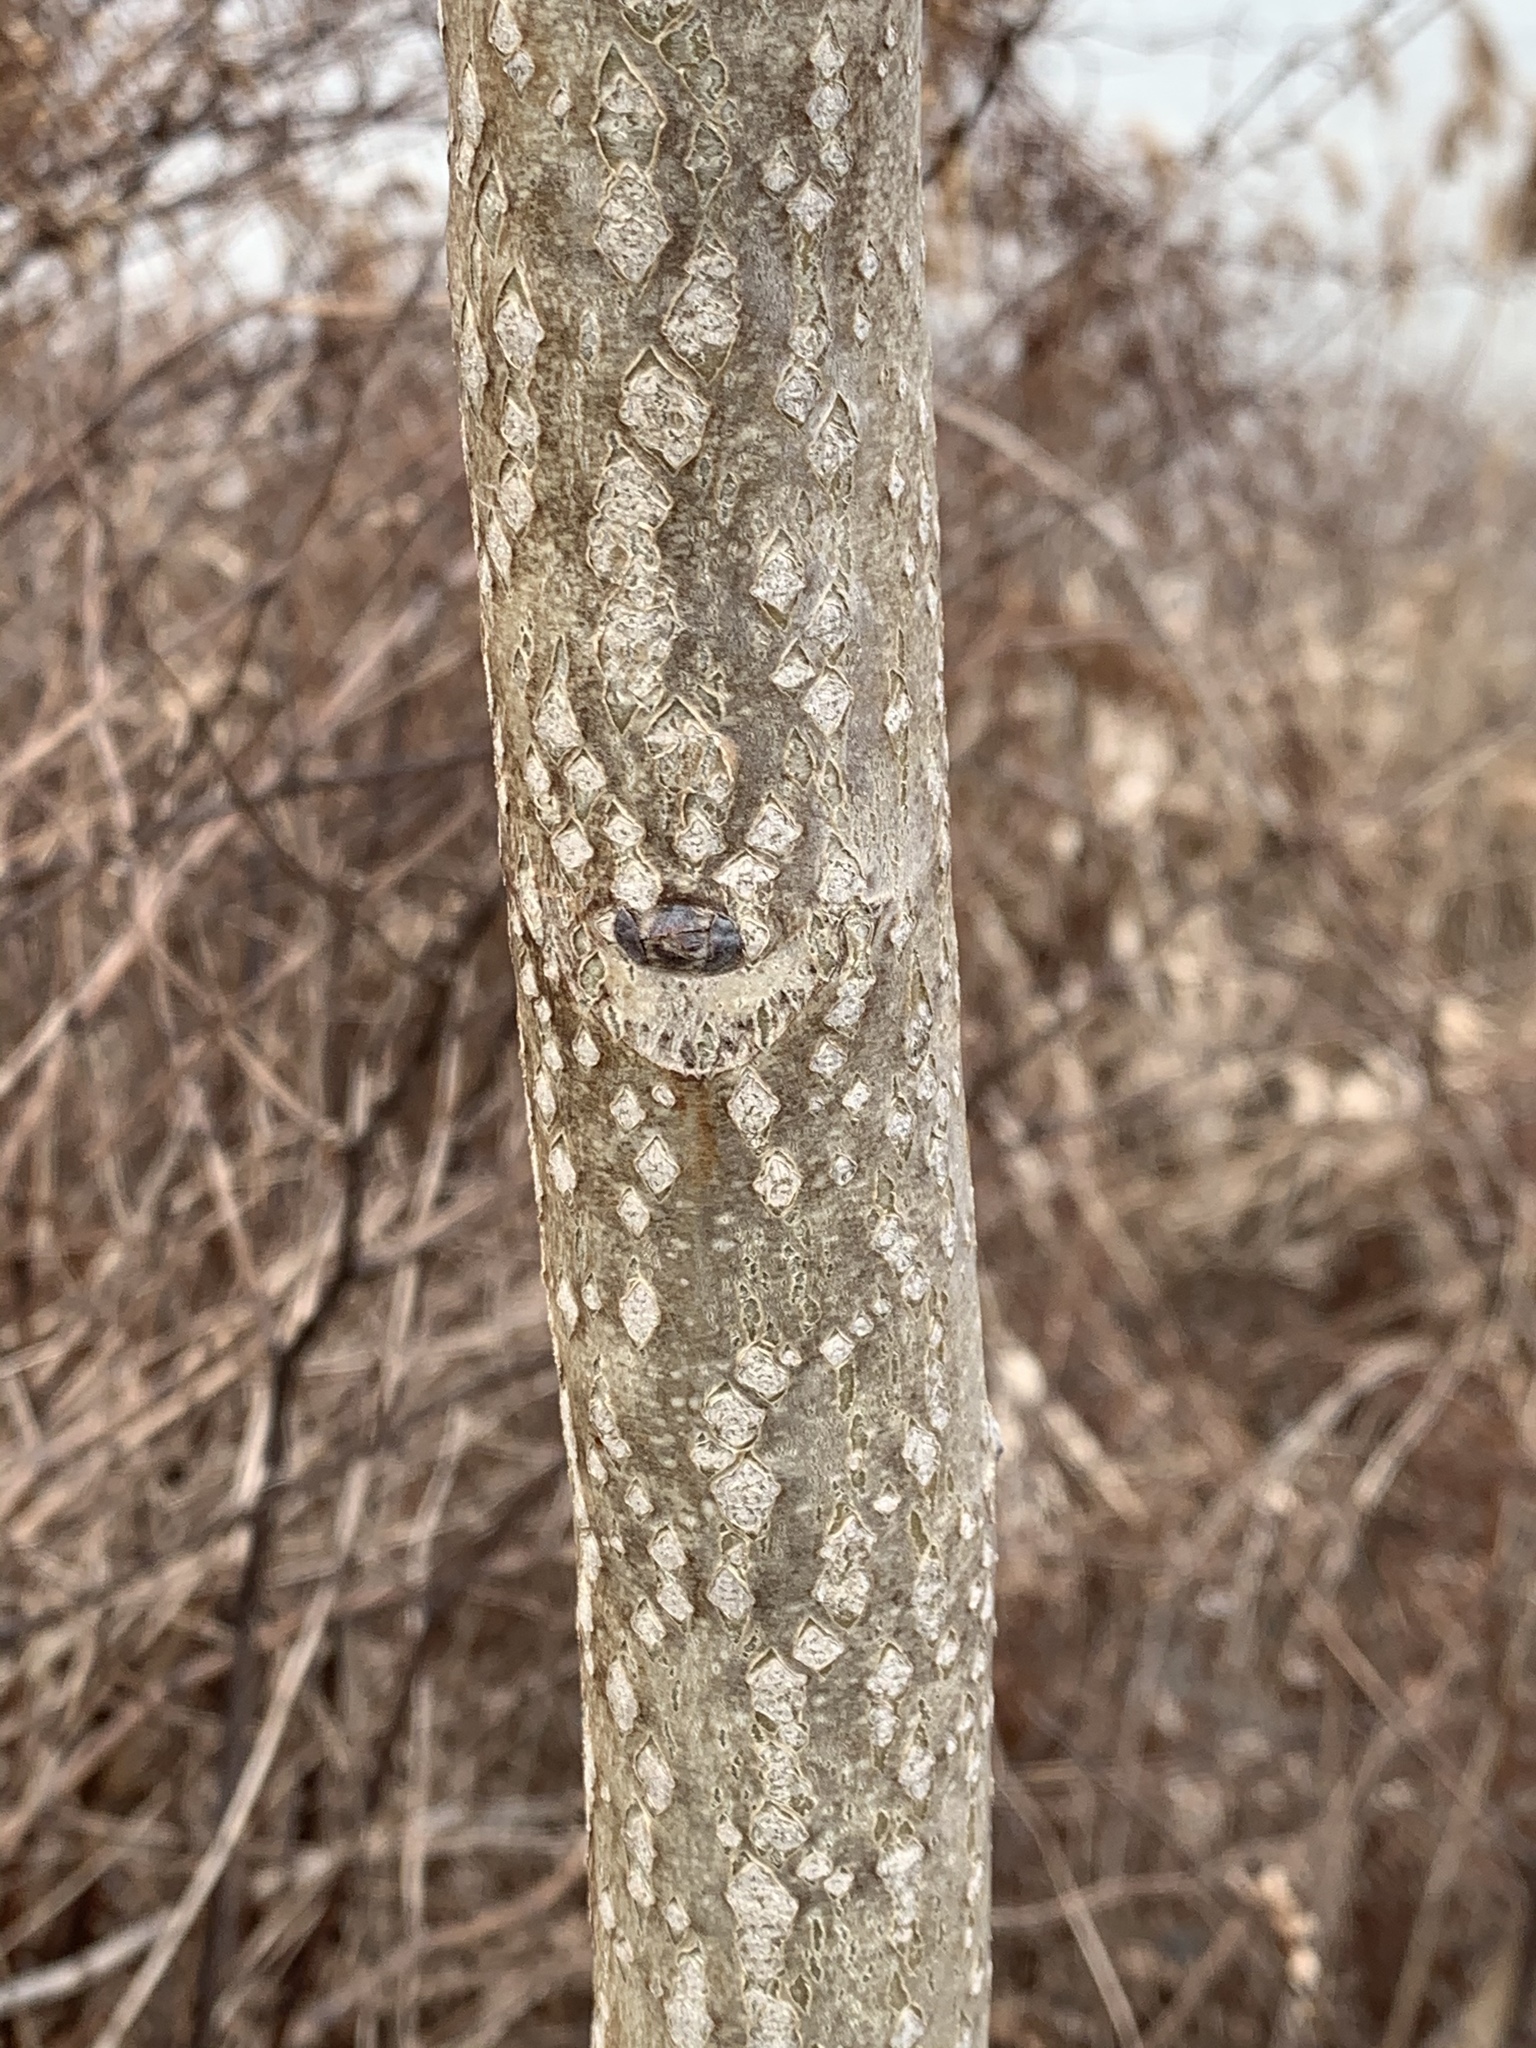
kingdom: Plantae
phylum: Tracheophyta
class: Magnoliopsida
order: Sapindales
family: Simaroubaceae
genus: Ailanthus
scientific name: Ailanthus altissima
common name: Tree-of-heaven
